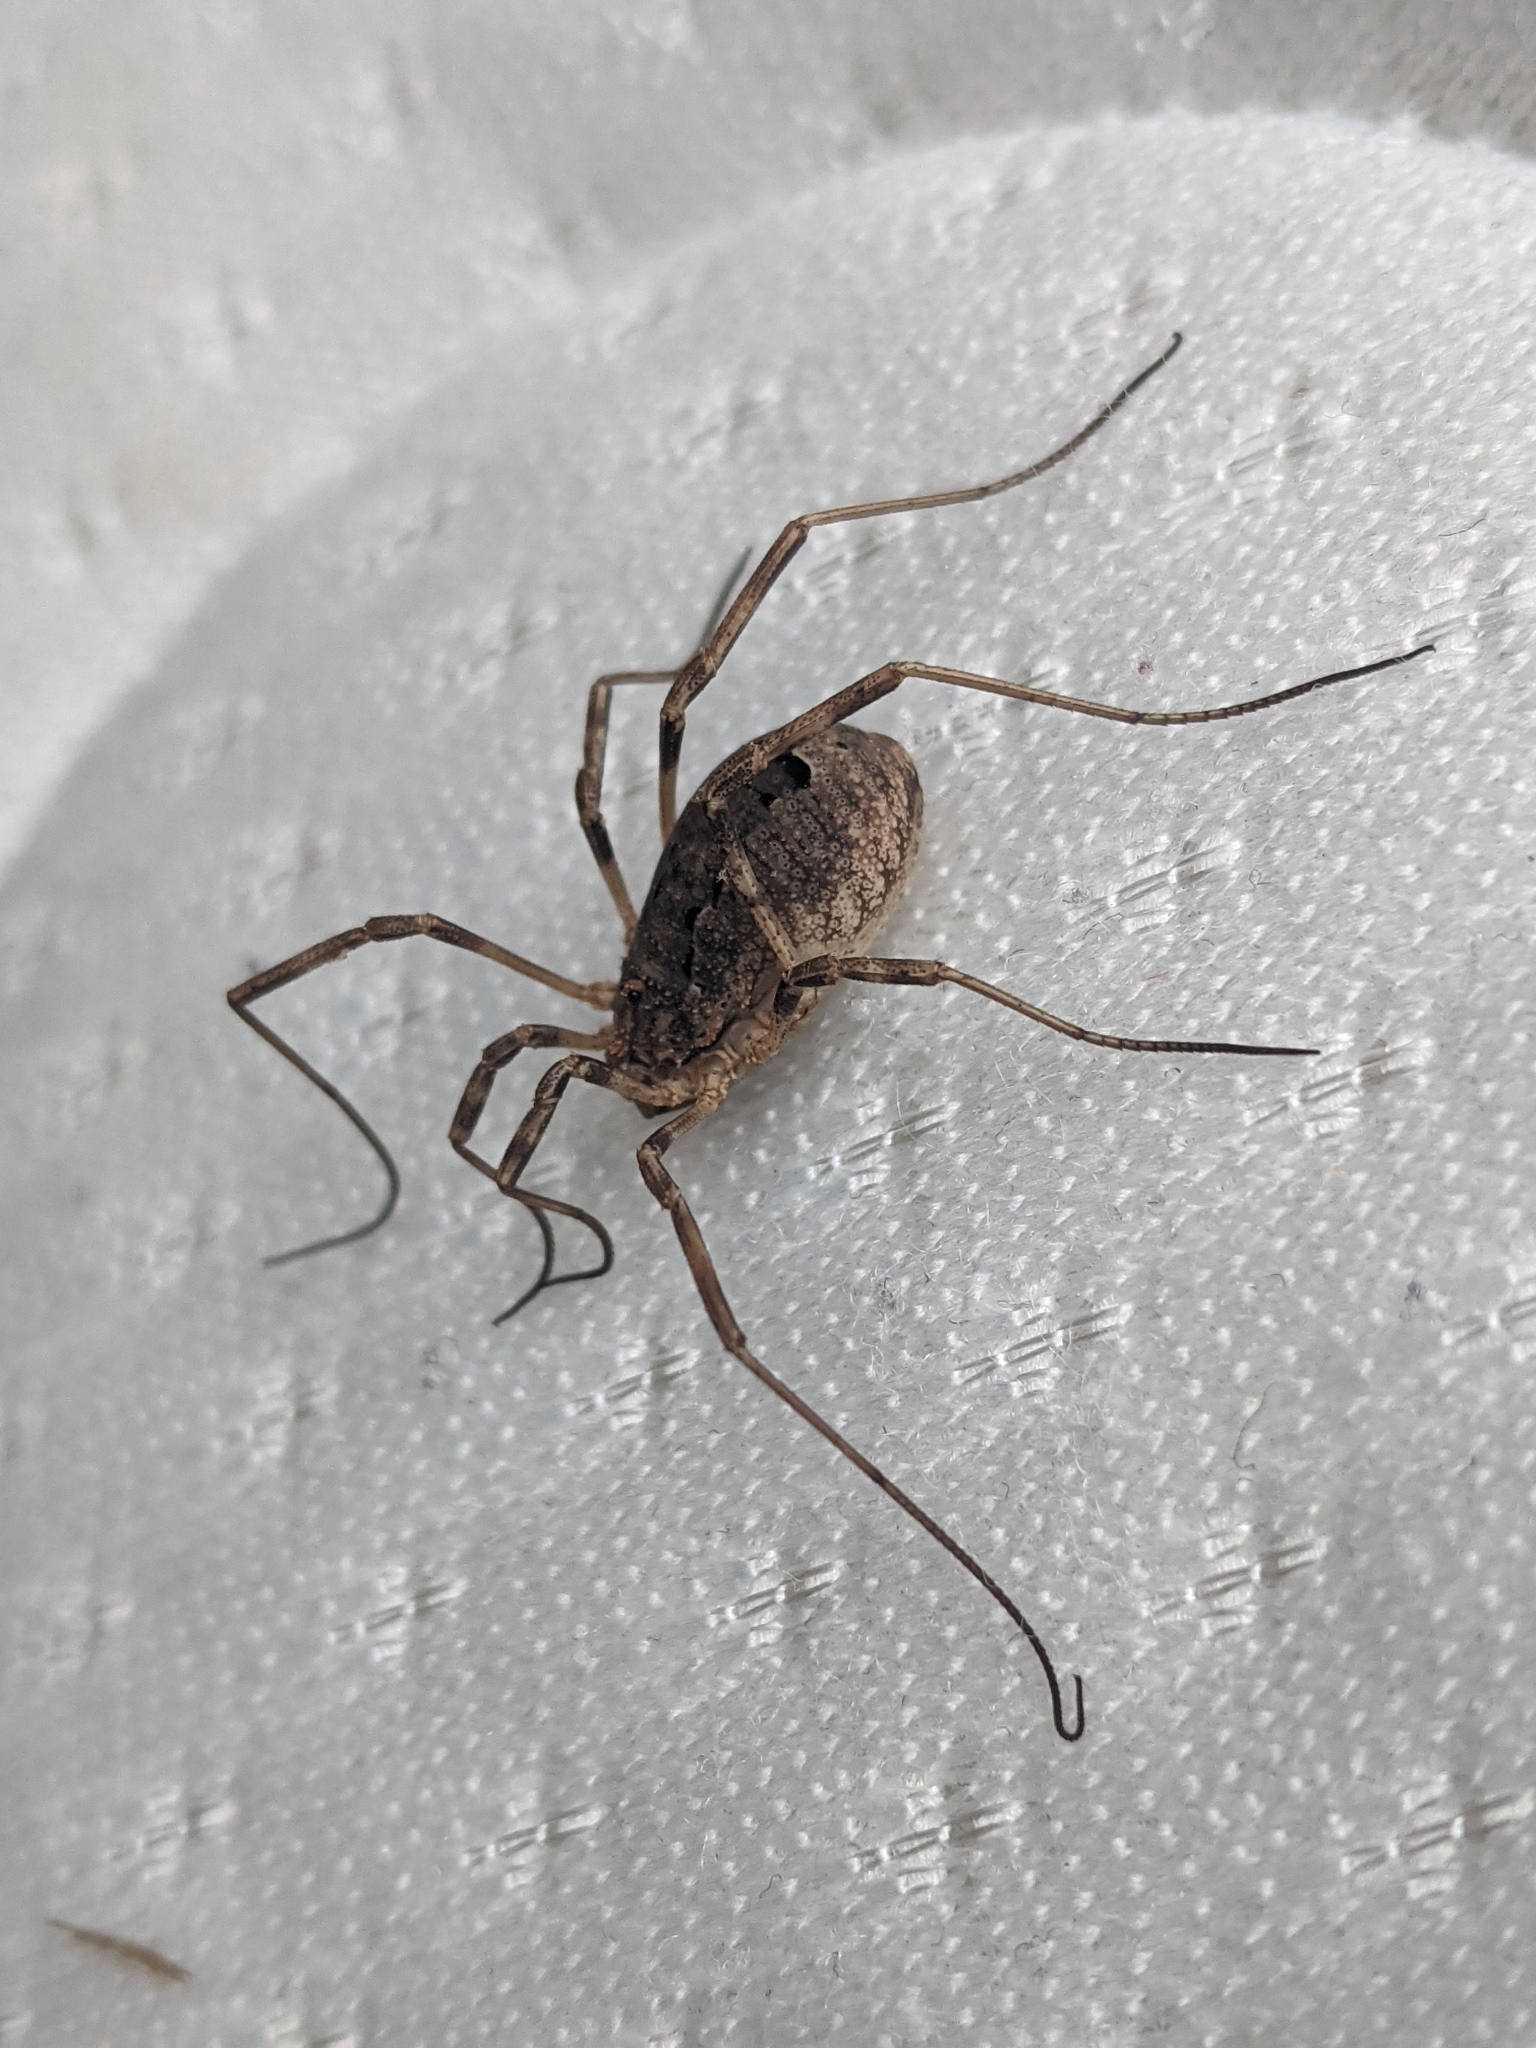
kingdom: Animalia
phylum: Arthropoda
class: Arachnida
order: Opiliones
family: Phalangiidae
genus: Odiellus
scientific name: Odiellus spinosus
